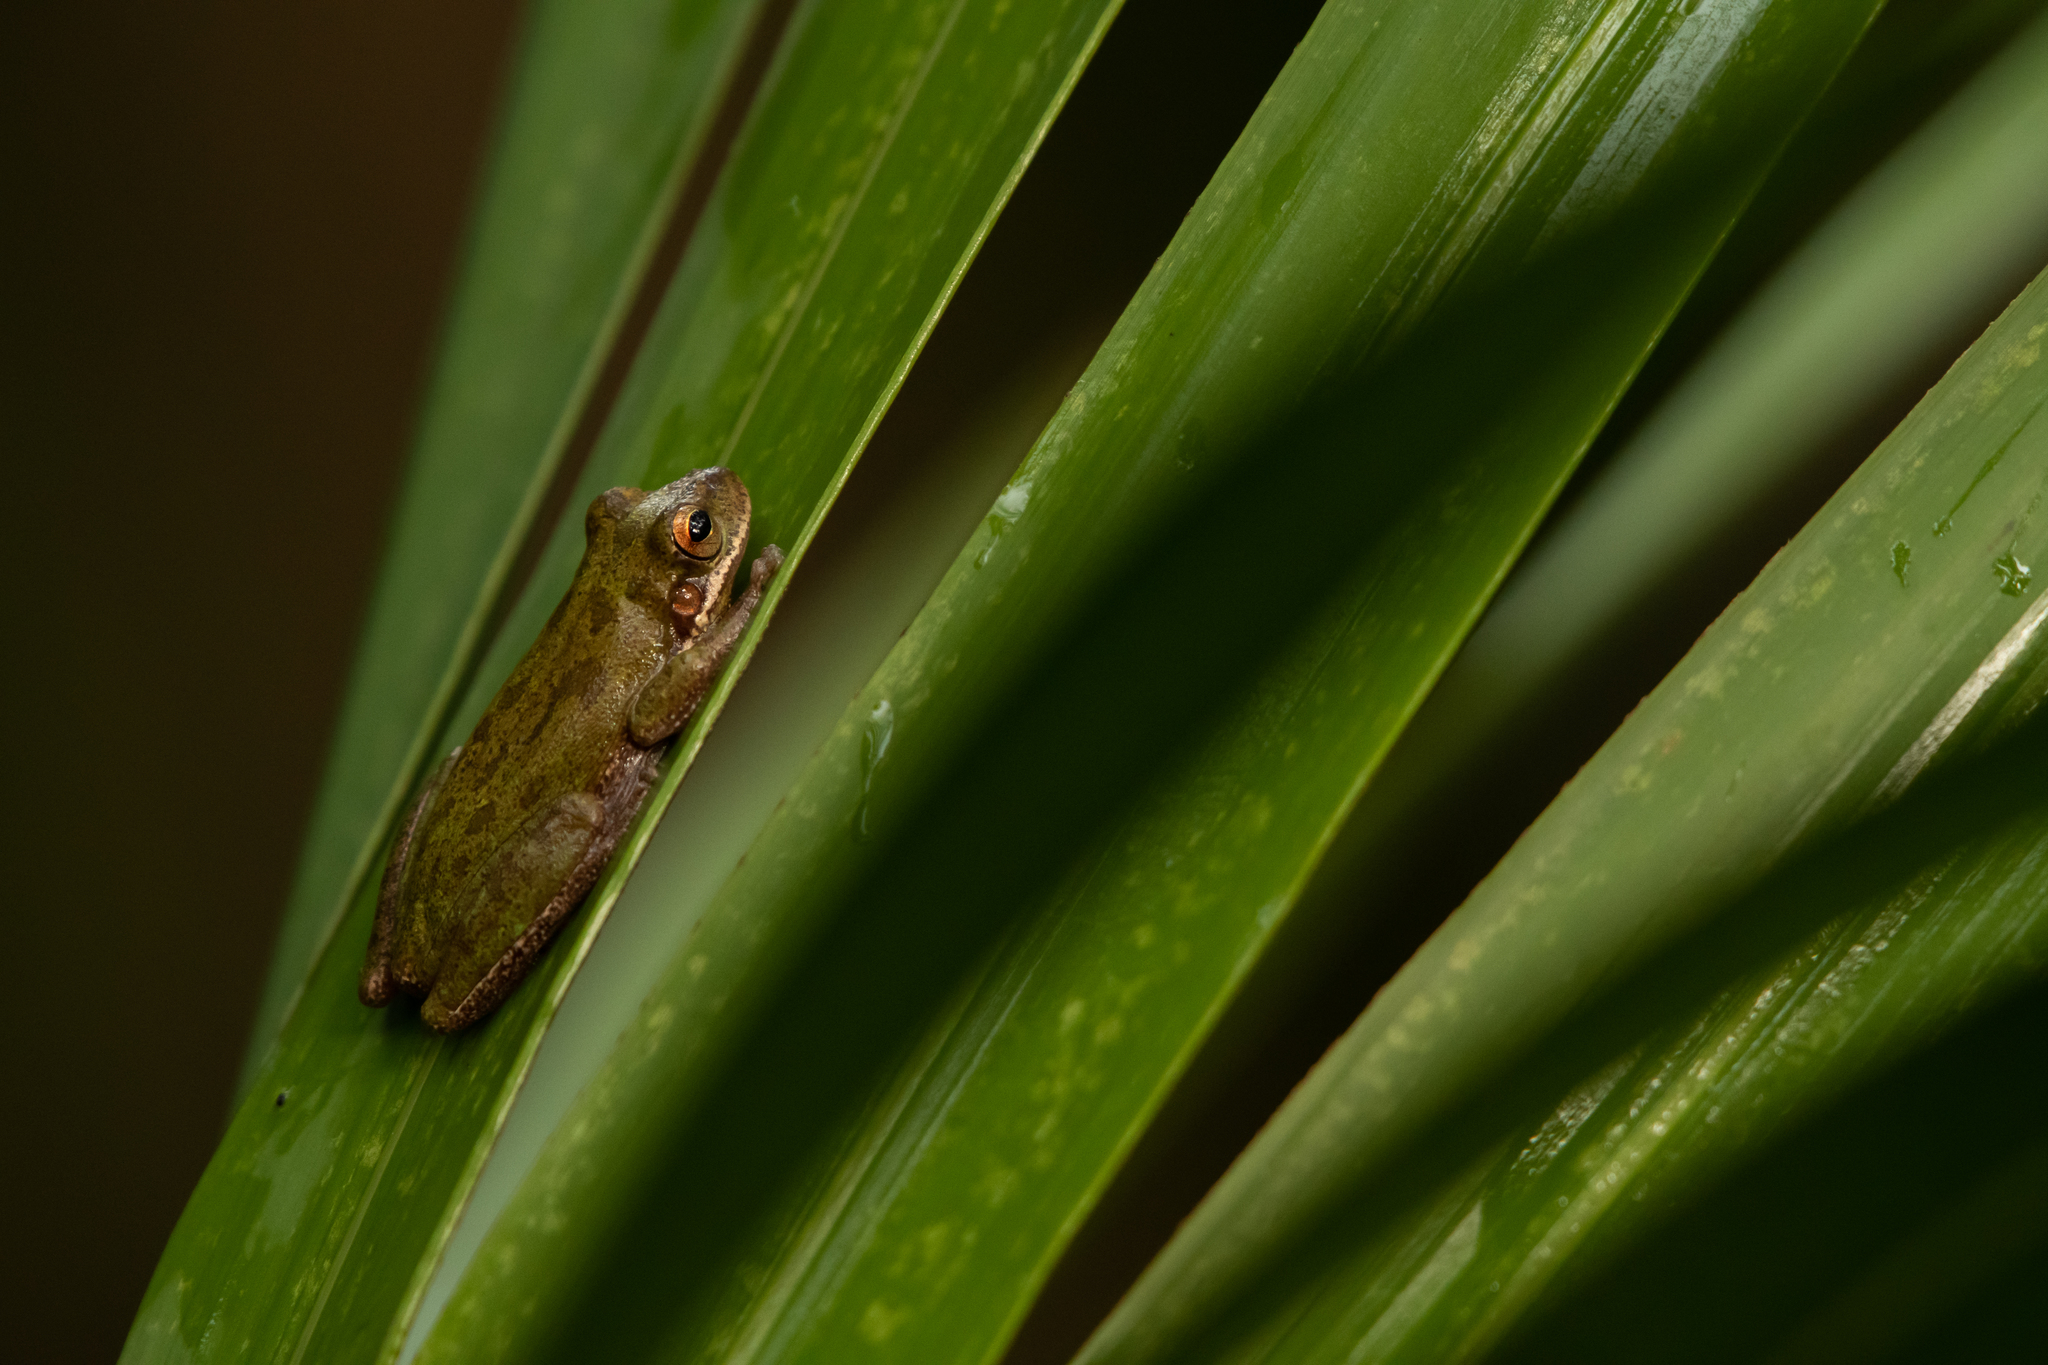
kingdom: Animalia
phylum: Chordata
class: Amphibia
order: Anura
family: Hylidae
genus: Dryophytes
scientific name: Dryophytes squirellus
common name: Squirrel treefrog
